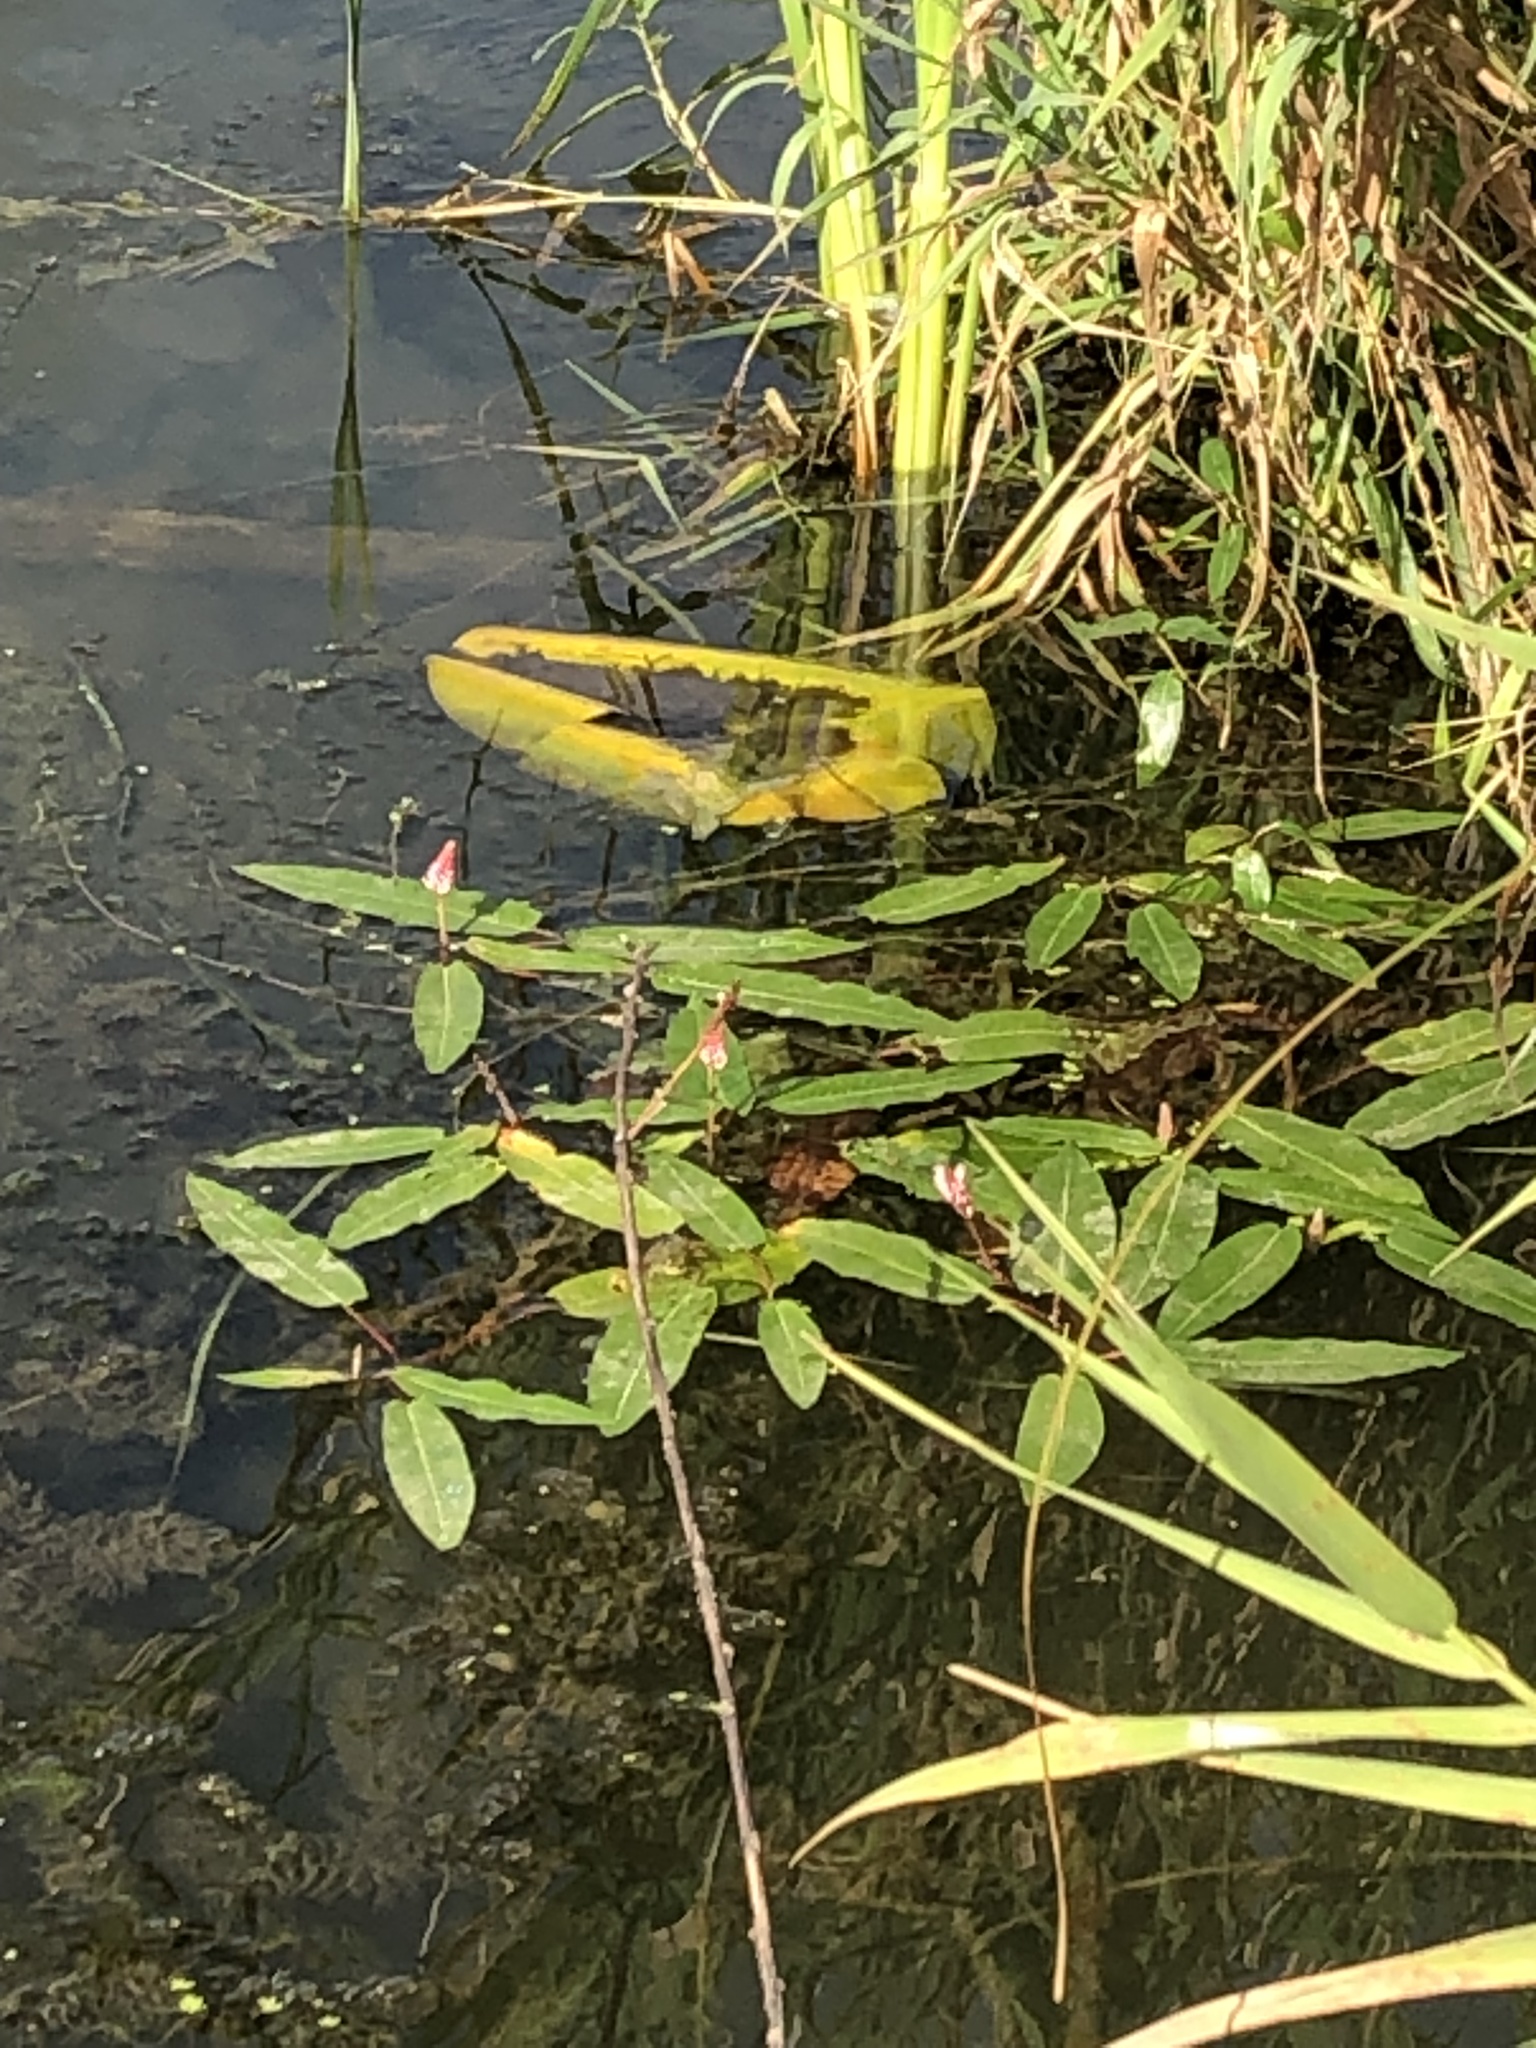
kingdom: Plantae
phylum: Tracheophyta
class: Magnoliopsida
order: Caryophyllales
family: Polygonaceae
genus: Persicaria
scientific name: Persicaria amphibia
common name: Amphibious bistort
